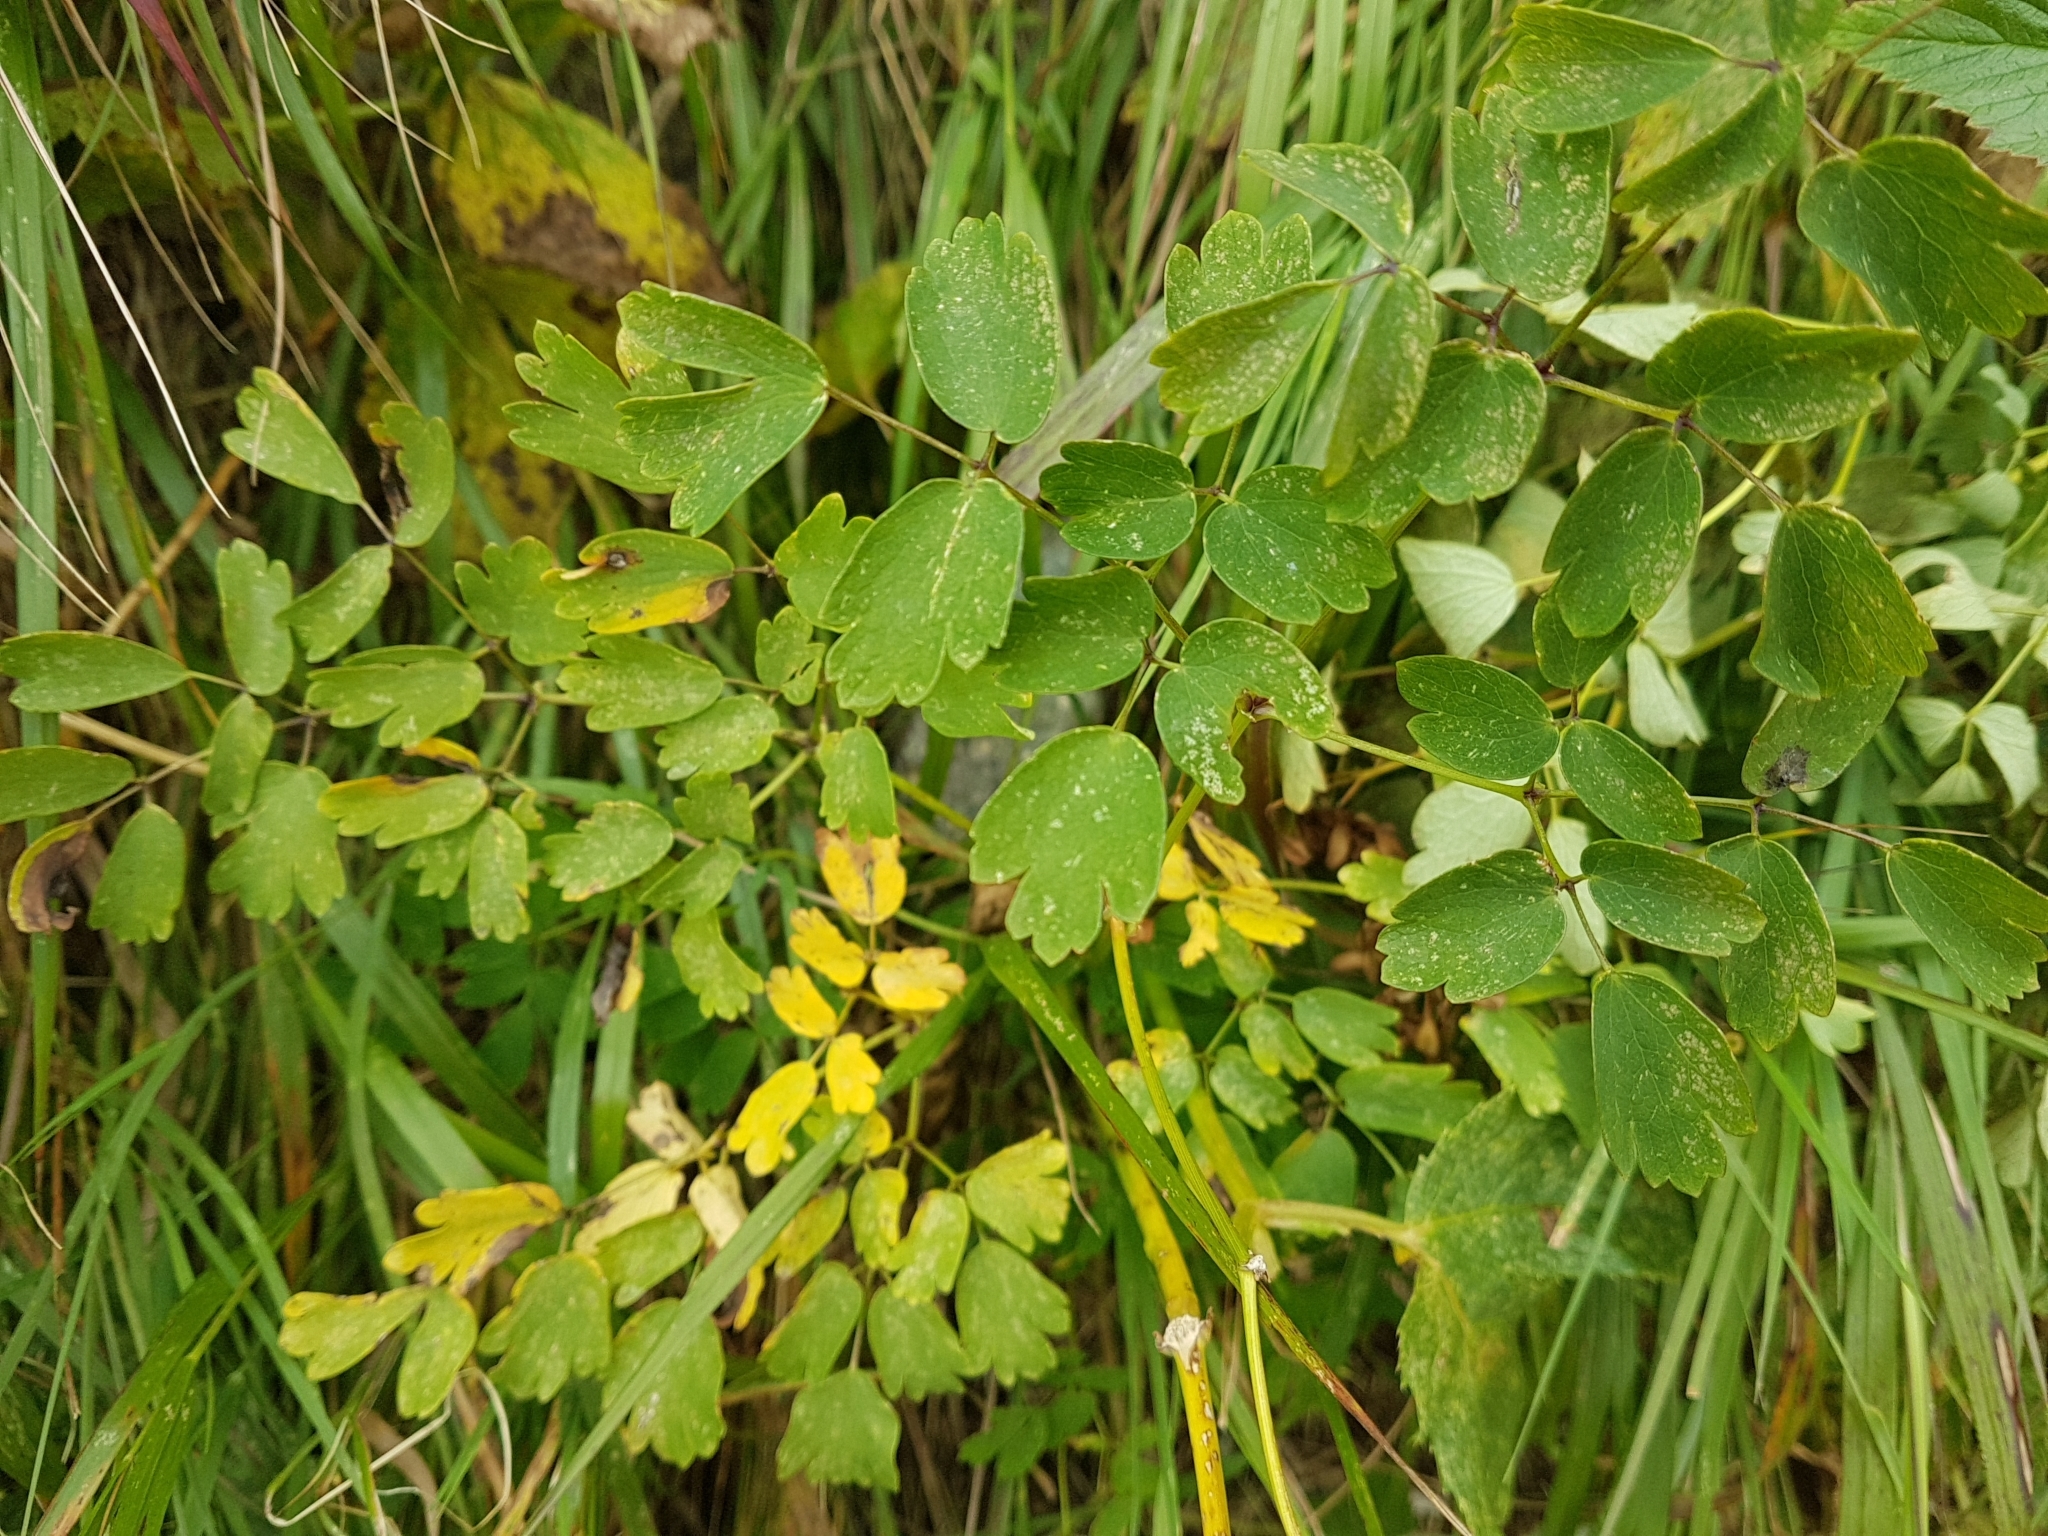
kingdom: Plantae
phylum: Tracheophyta
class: Magnoliopsida
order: Ranunculales
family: Ranunculaceae
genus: Thalictrum
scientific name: Thalictrum aquilegiifolium
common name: French meadow-rue
